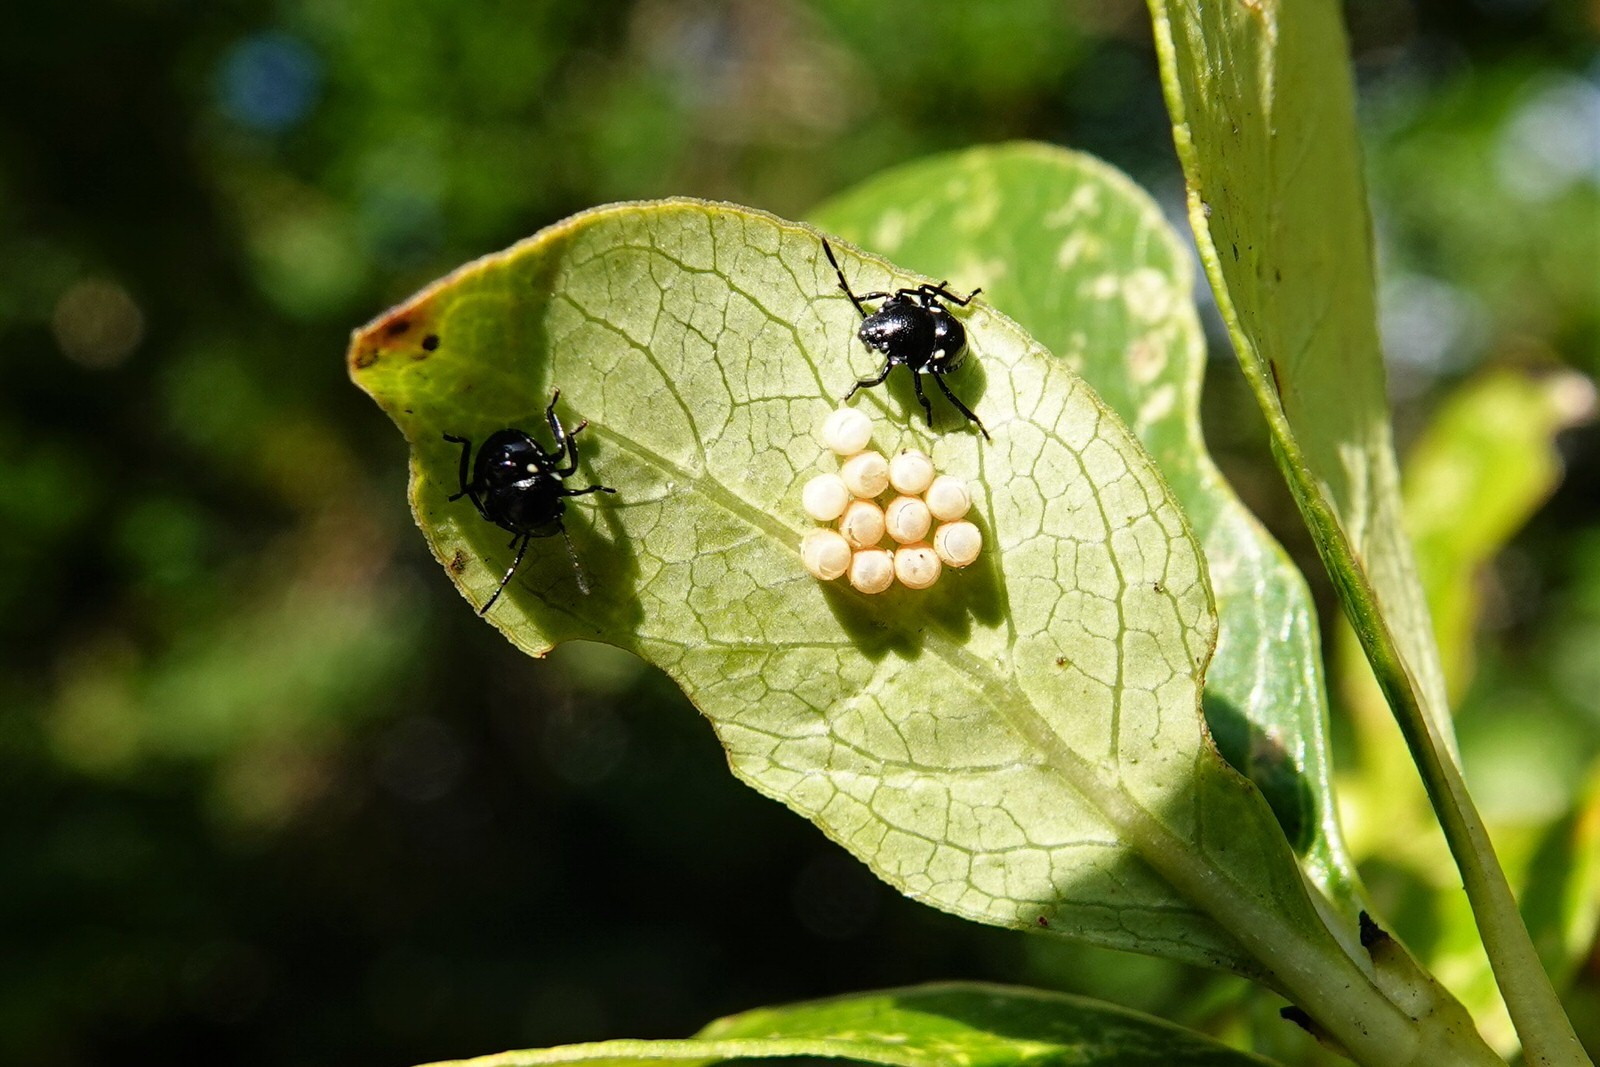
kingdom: Animalia
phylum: Arthropoda
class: Insecta
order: Hemiptera
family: Pentatomidae
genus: Glaucias
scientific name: Glaucias amyota
